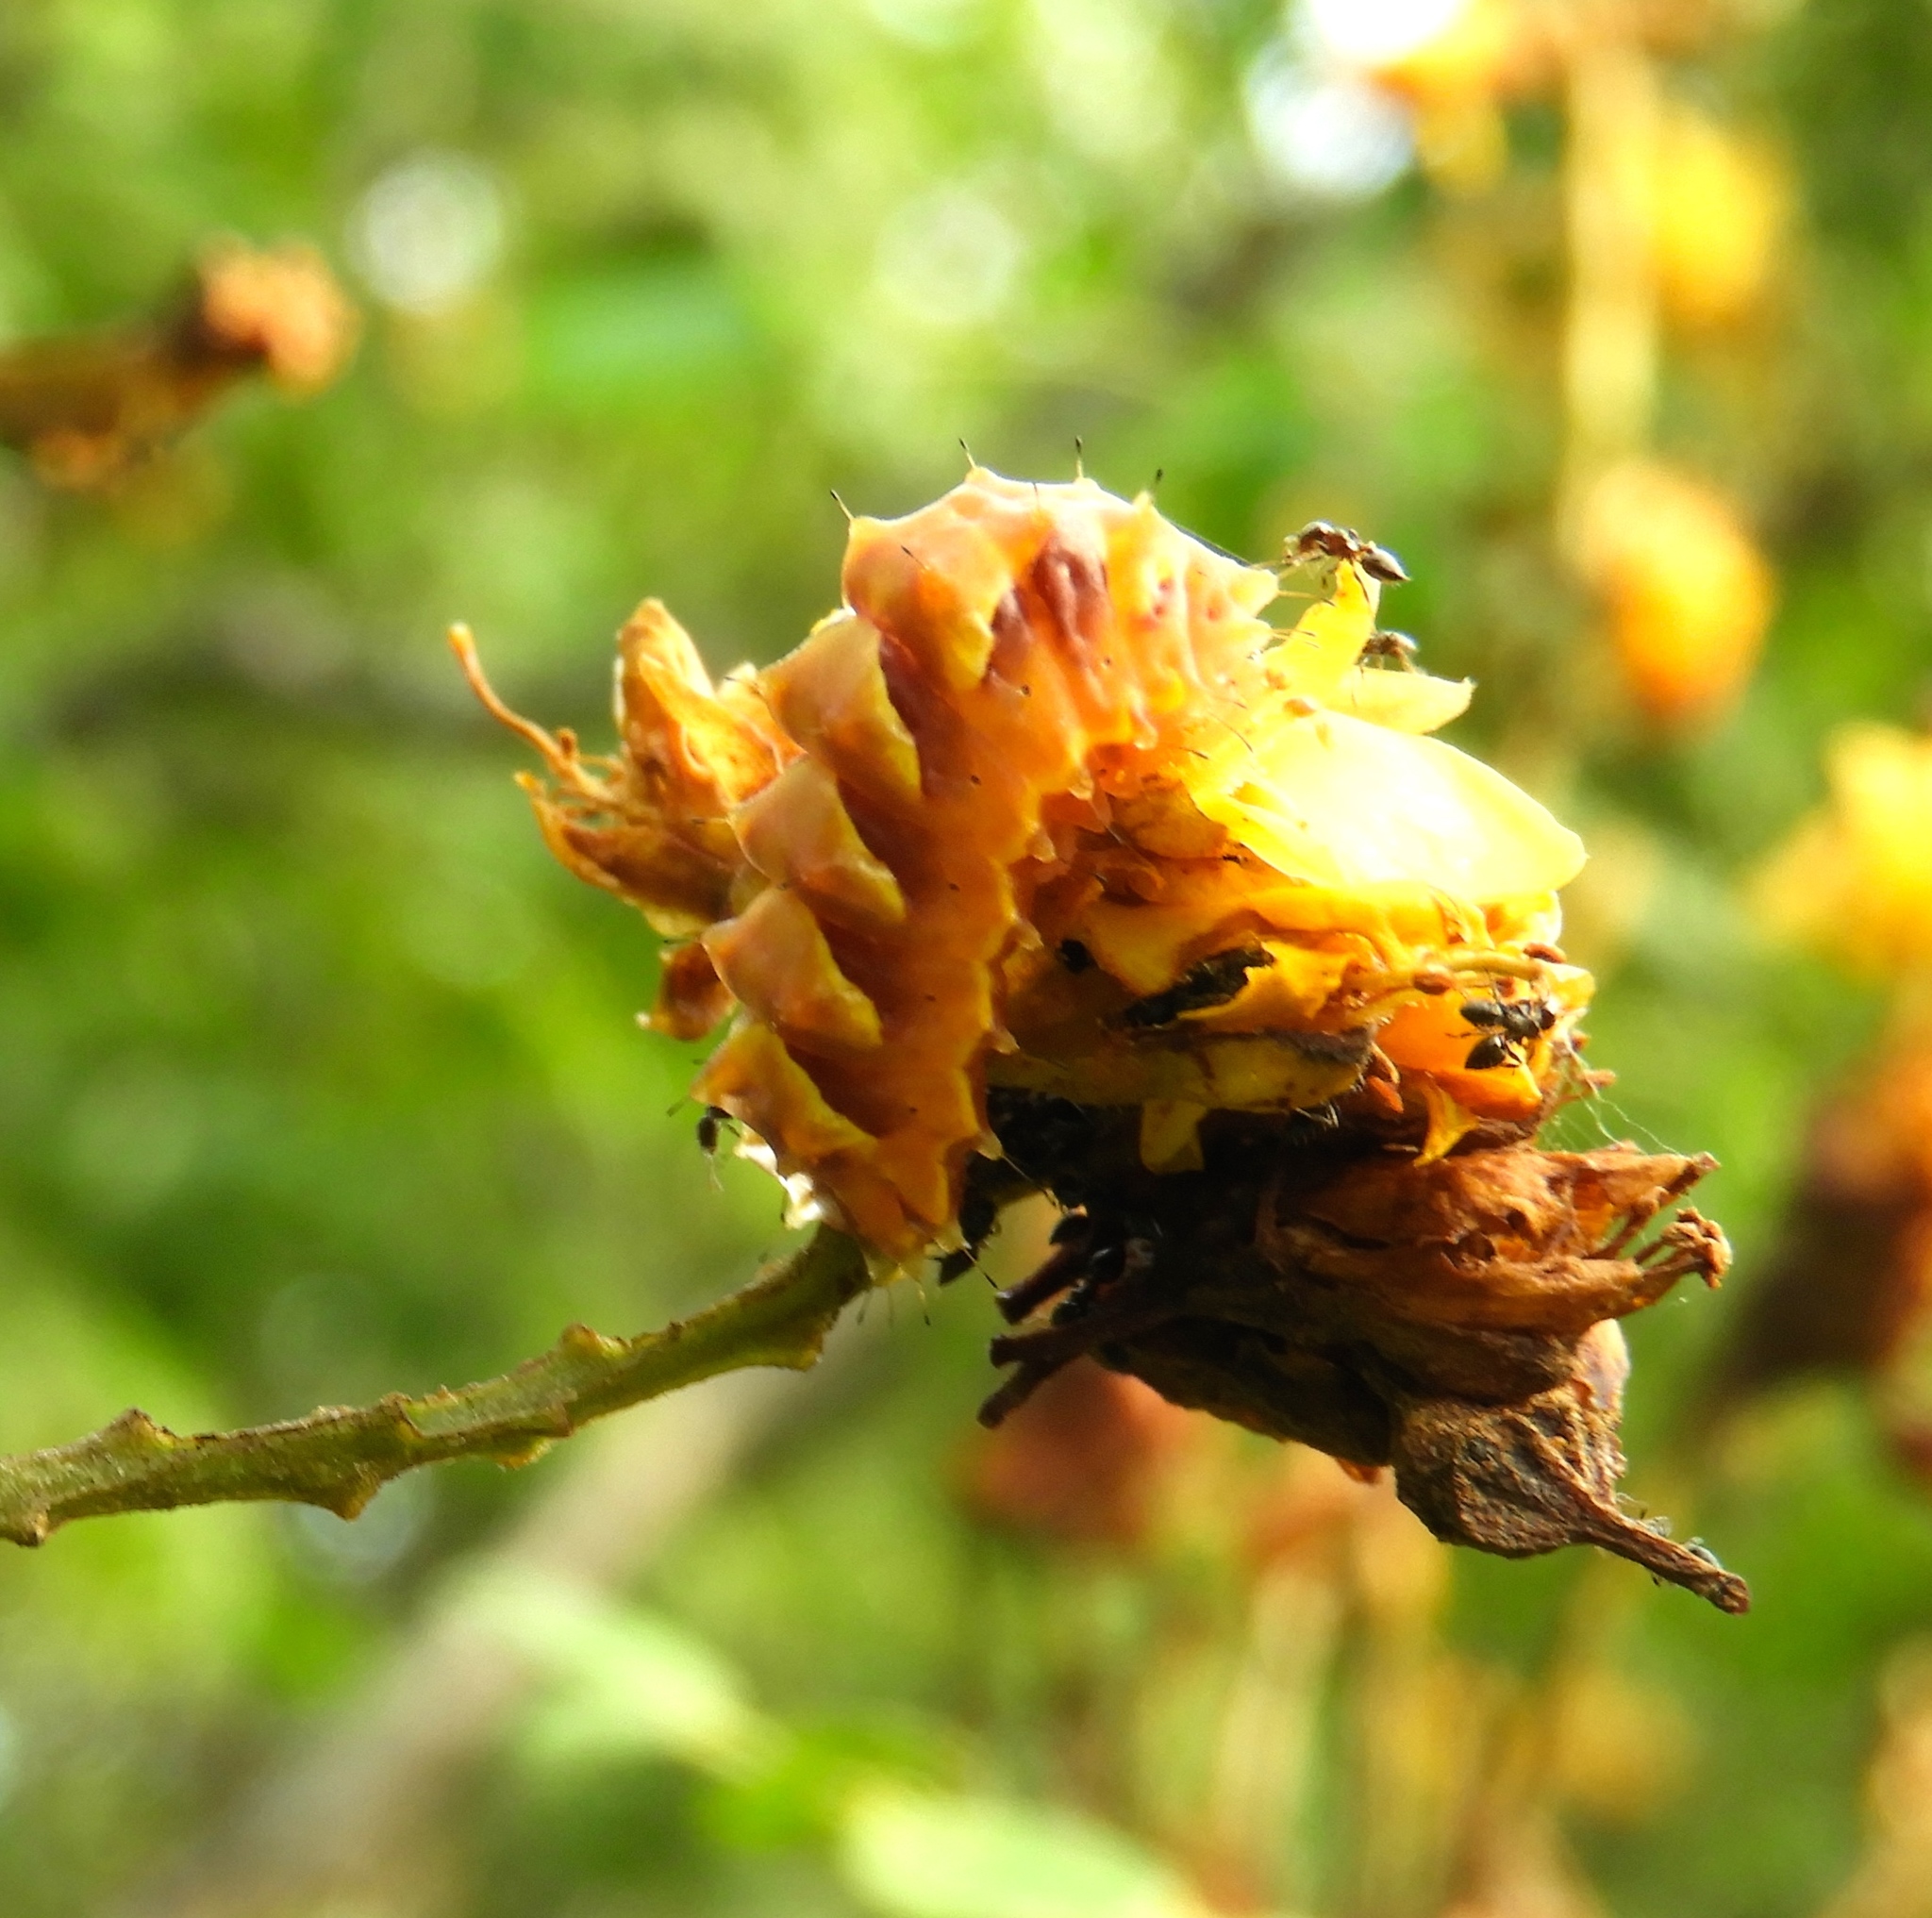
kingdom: Animalia
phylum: Arthropoda
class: Insecta
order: Hymenoptera
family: Formicidae
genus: Crematogaster
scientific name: Crematogaster
